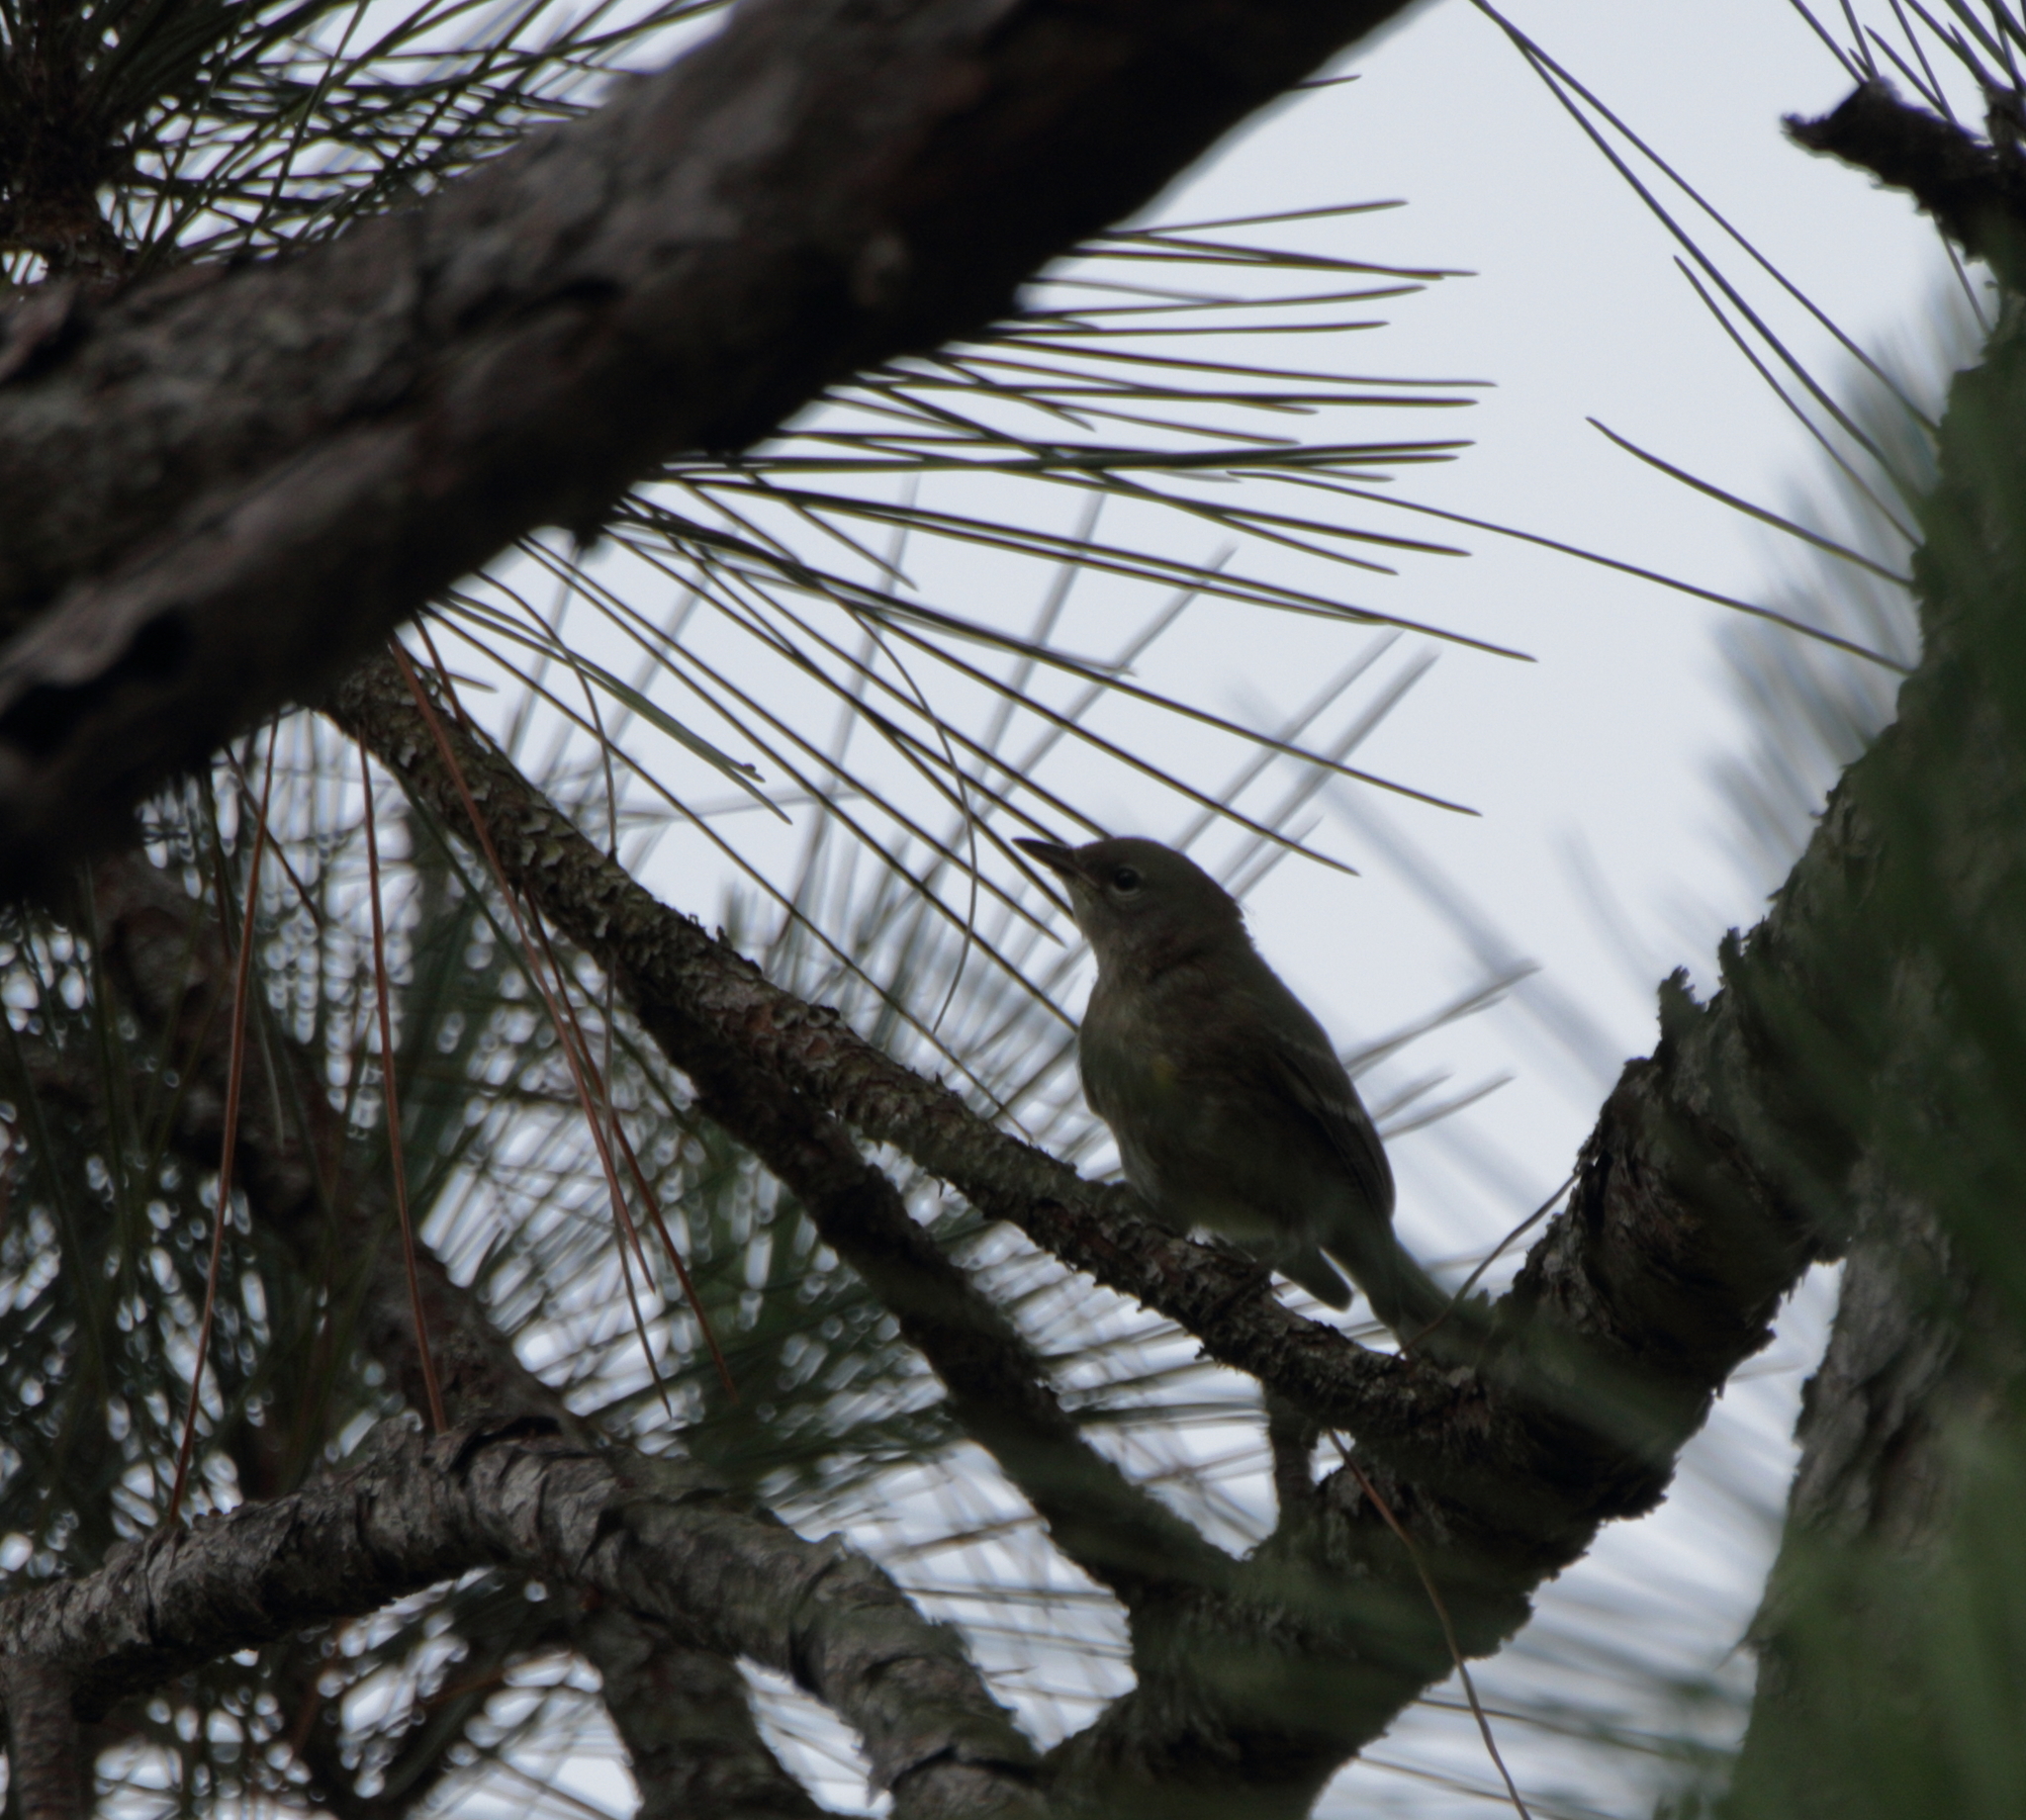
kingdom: Animalia
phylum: Chordata
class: Aves
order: Passeriformes
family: Parulidae
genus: Setophaga
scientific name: Setophaga pinus
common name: Pine warbler
